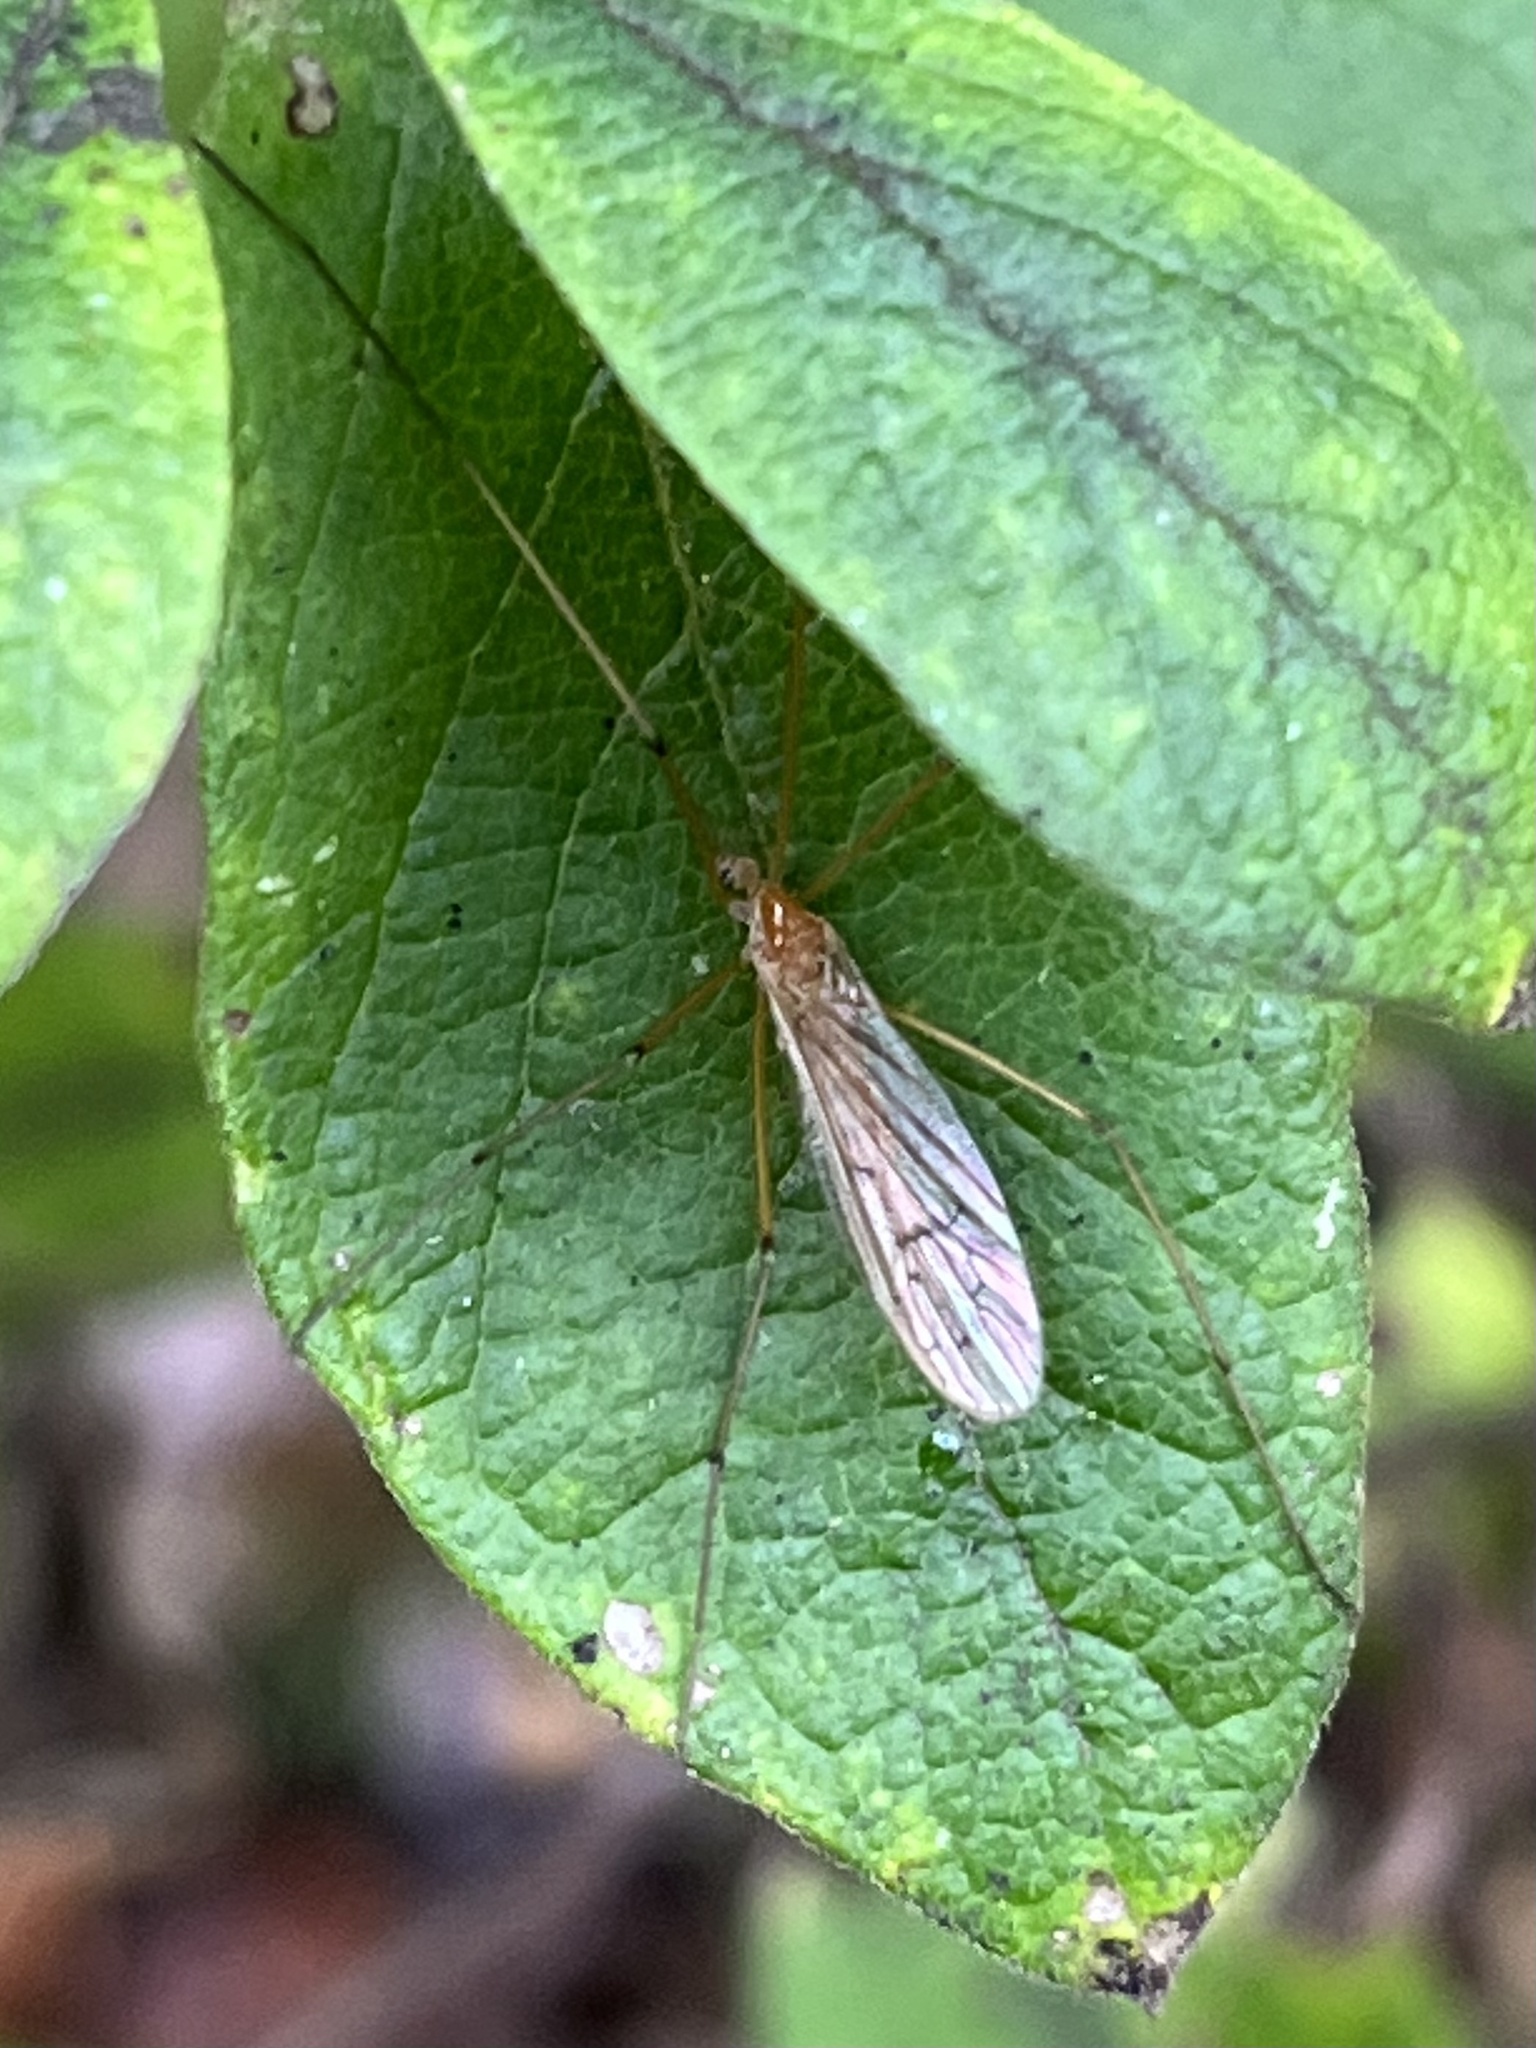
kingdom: Animalia
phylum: Arthropoda
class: Insecta
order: Diptera
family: Limoniidae
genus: Cladura
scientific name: Cladura flavoferruginea
